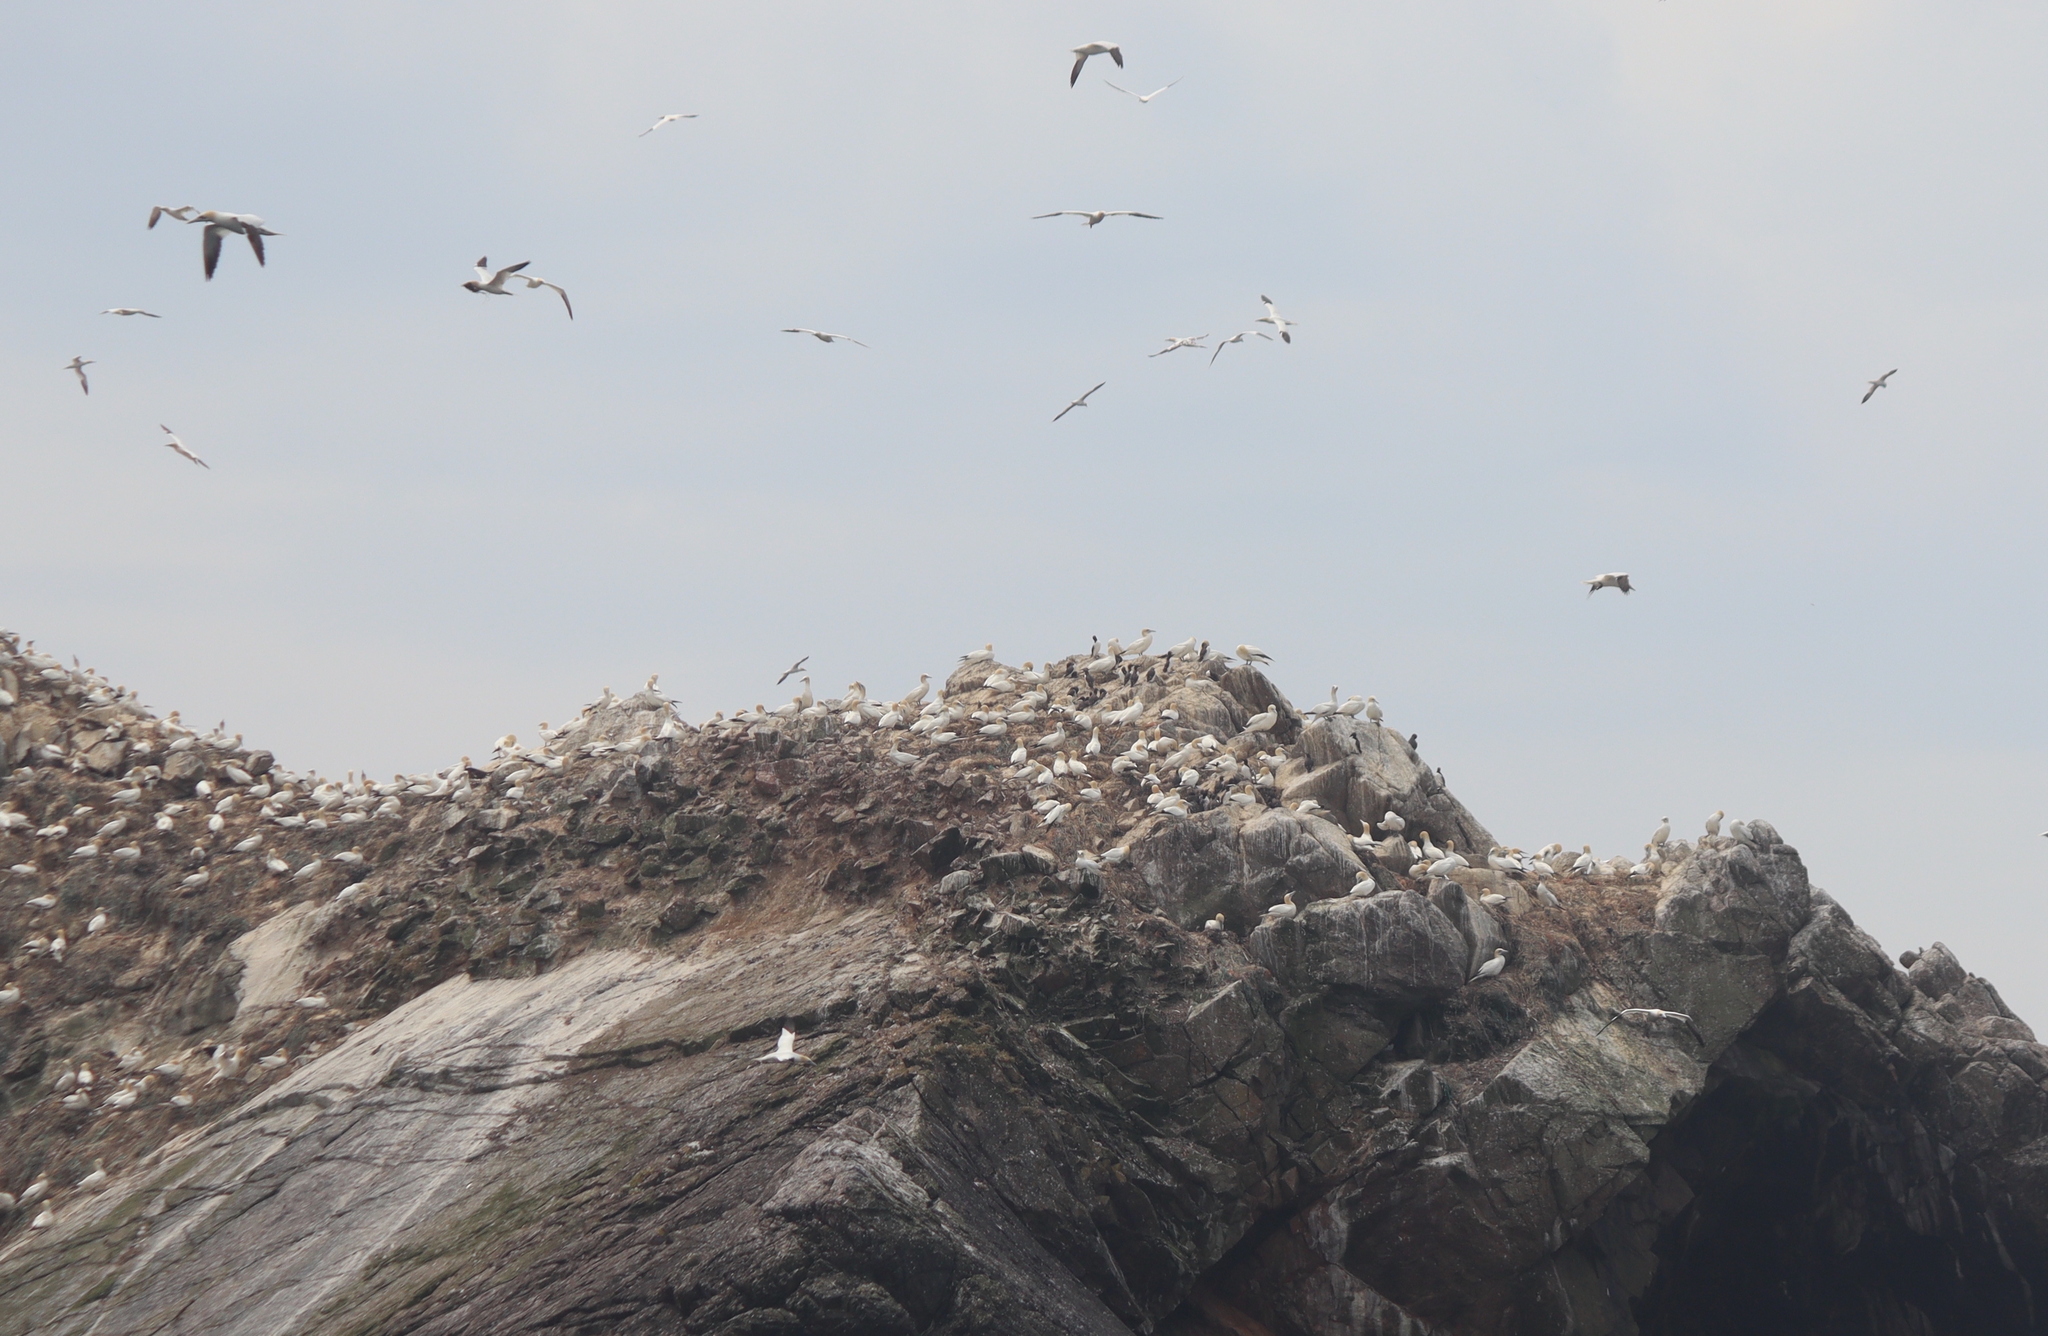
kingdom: Animalia
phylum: Chordata
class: Aves
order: Suliformes
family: Sulidae
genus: Morus
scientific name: Morus bassanus
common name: Northern gannet
